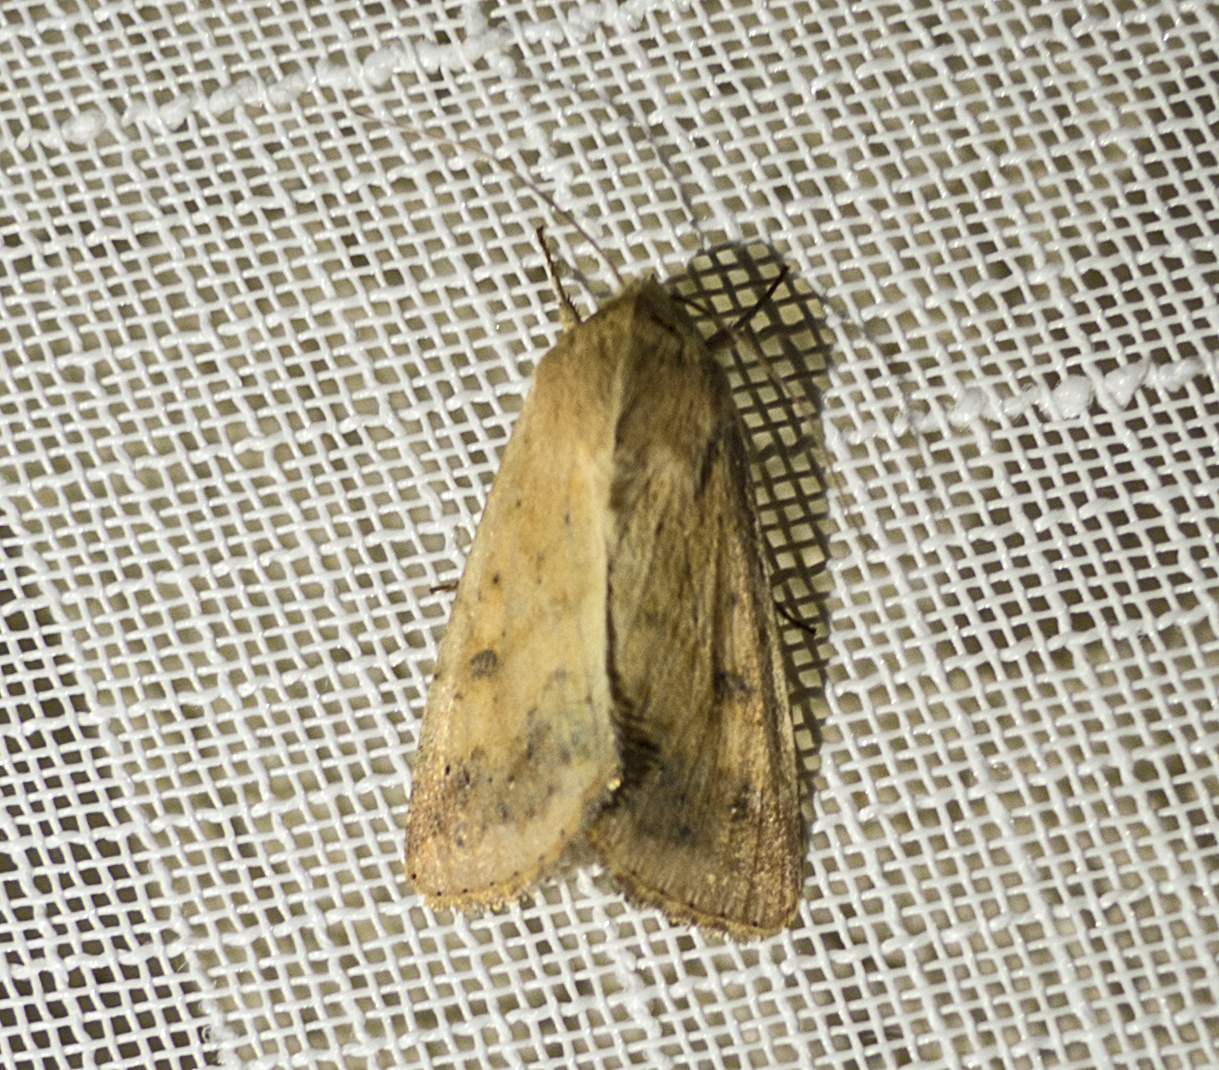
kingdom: Animalia
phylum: Arthropoda
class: Insecta
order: Lepidoptera
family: Noctuidae
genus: Helicoverpa
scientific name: Helicoverpa armigera
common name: Cotton bollworm
